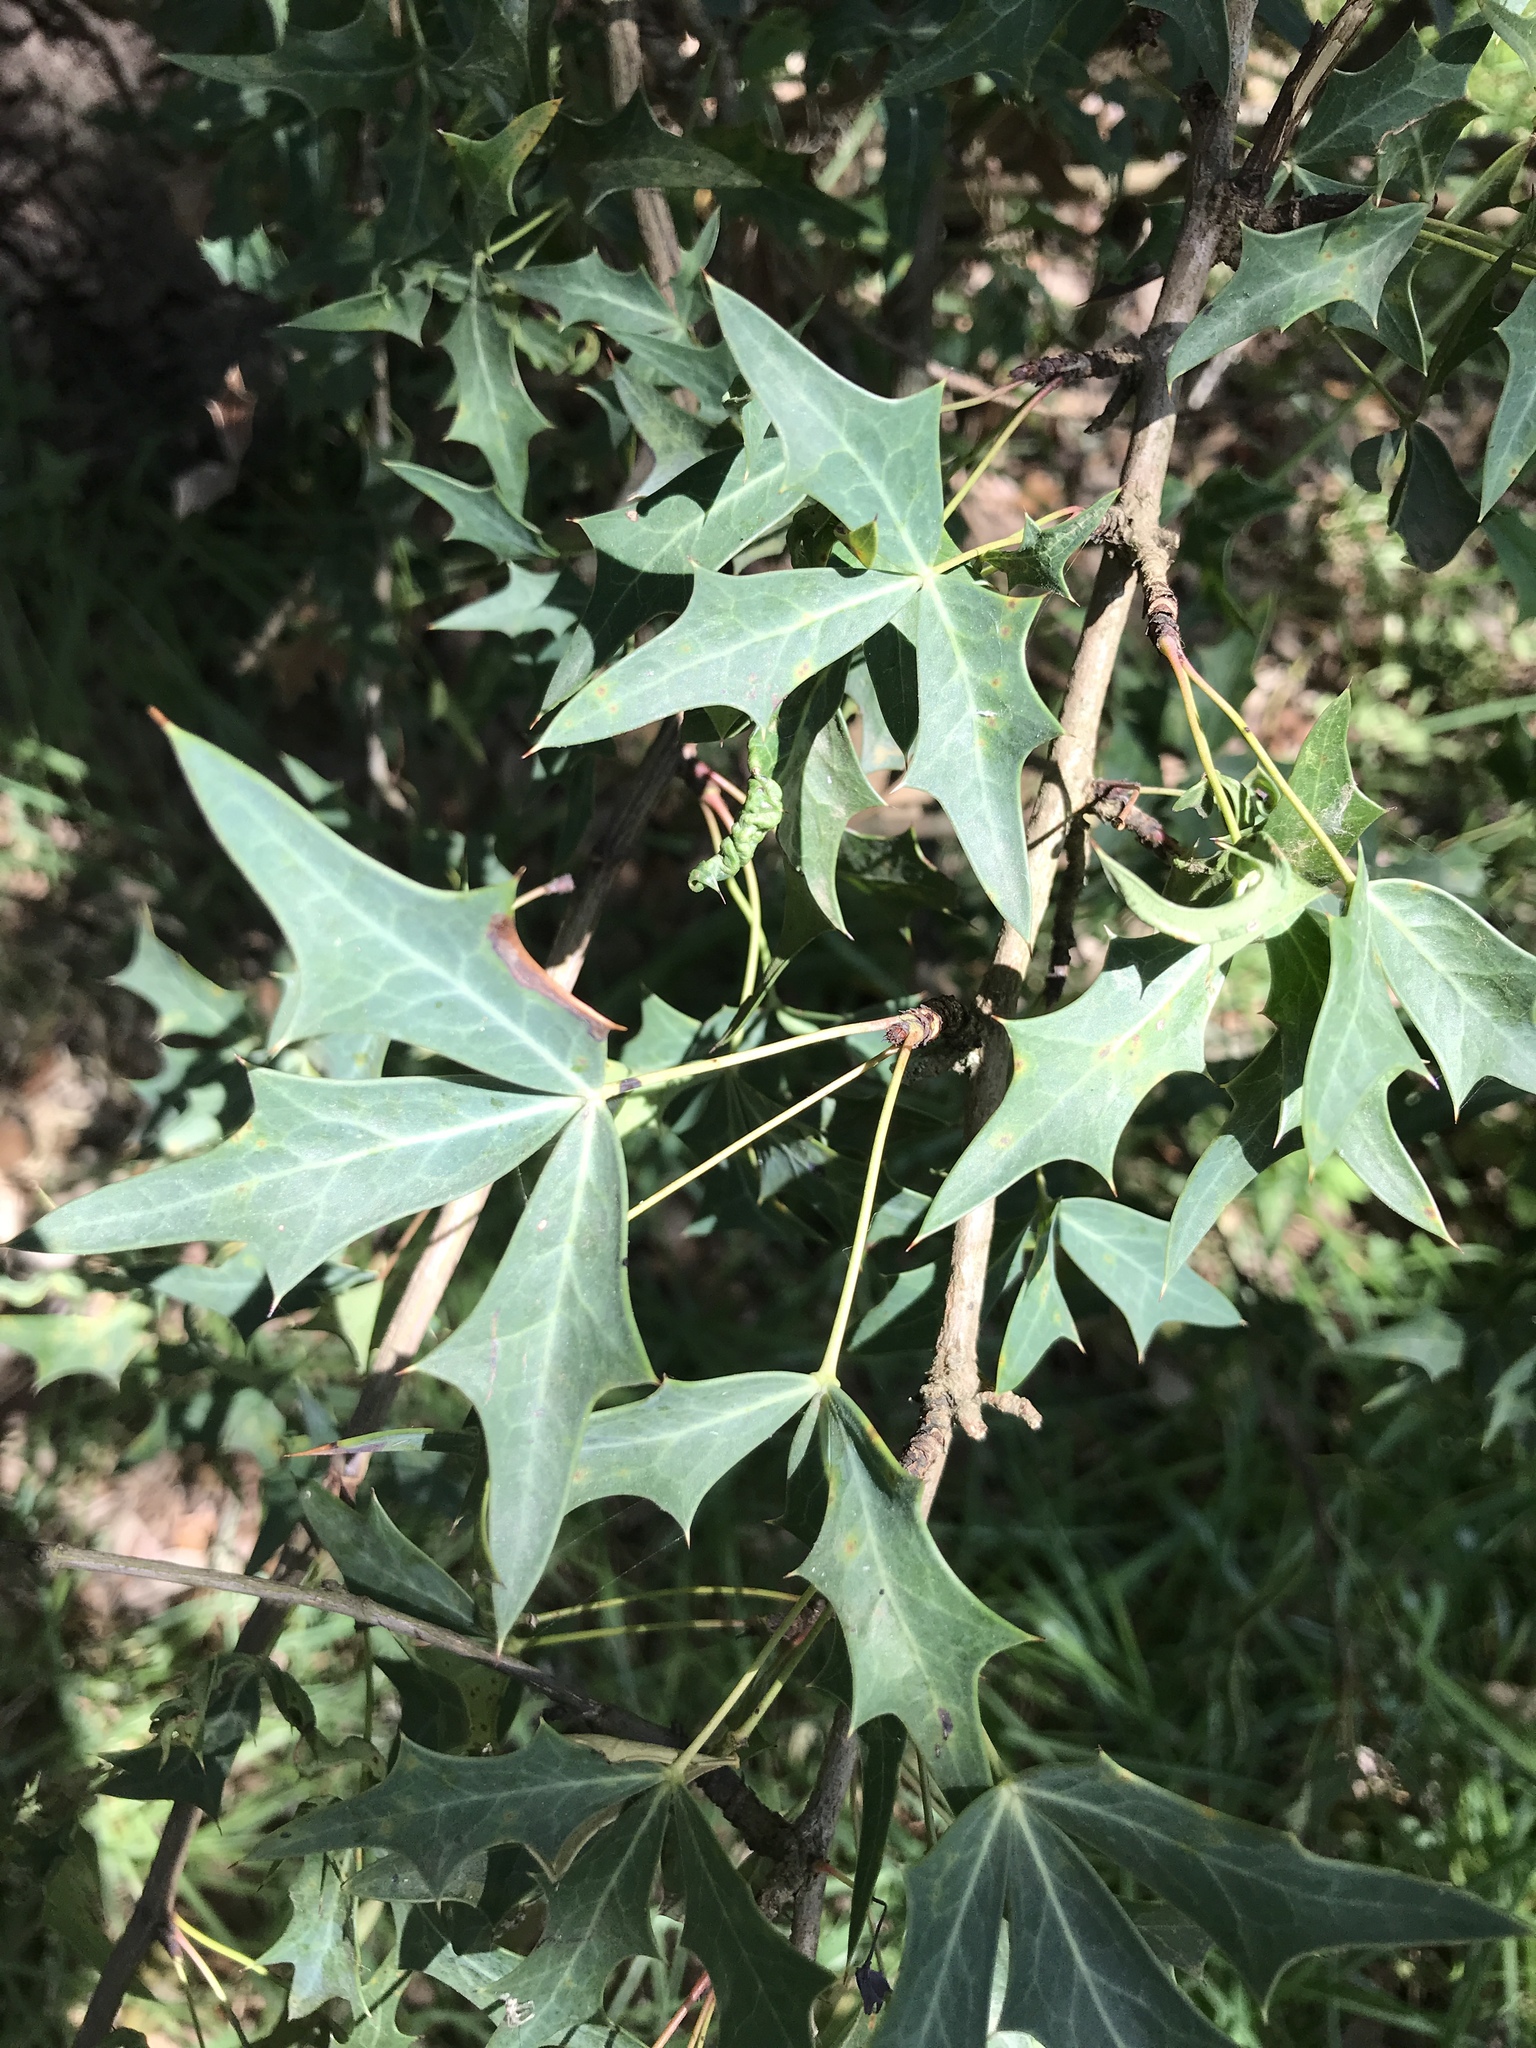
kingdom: Plantae
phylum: Tracheophyta
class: Magnoliopsida
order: Ranunculales
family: Berberidaceae
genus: Alloberberis
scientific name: Alloberberis trifoliolata
